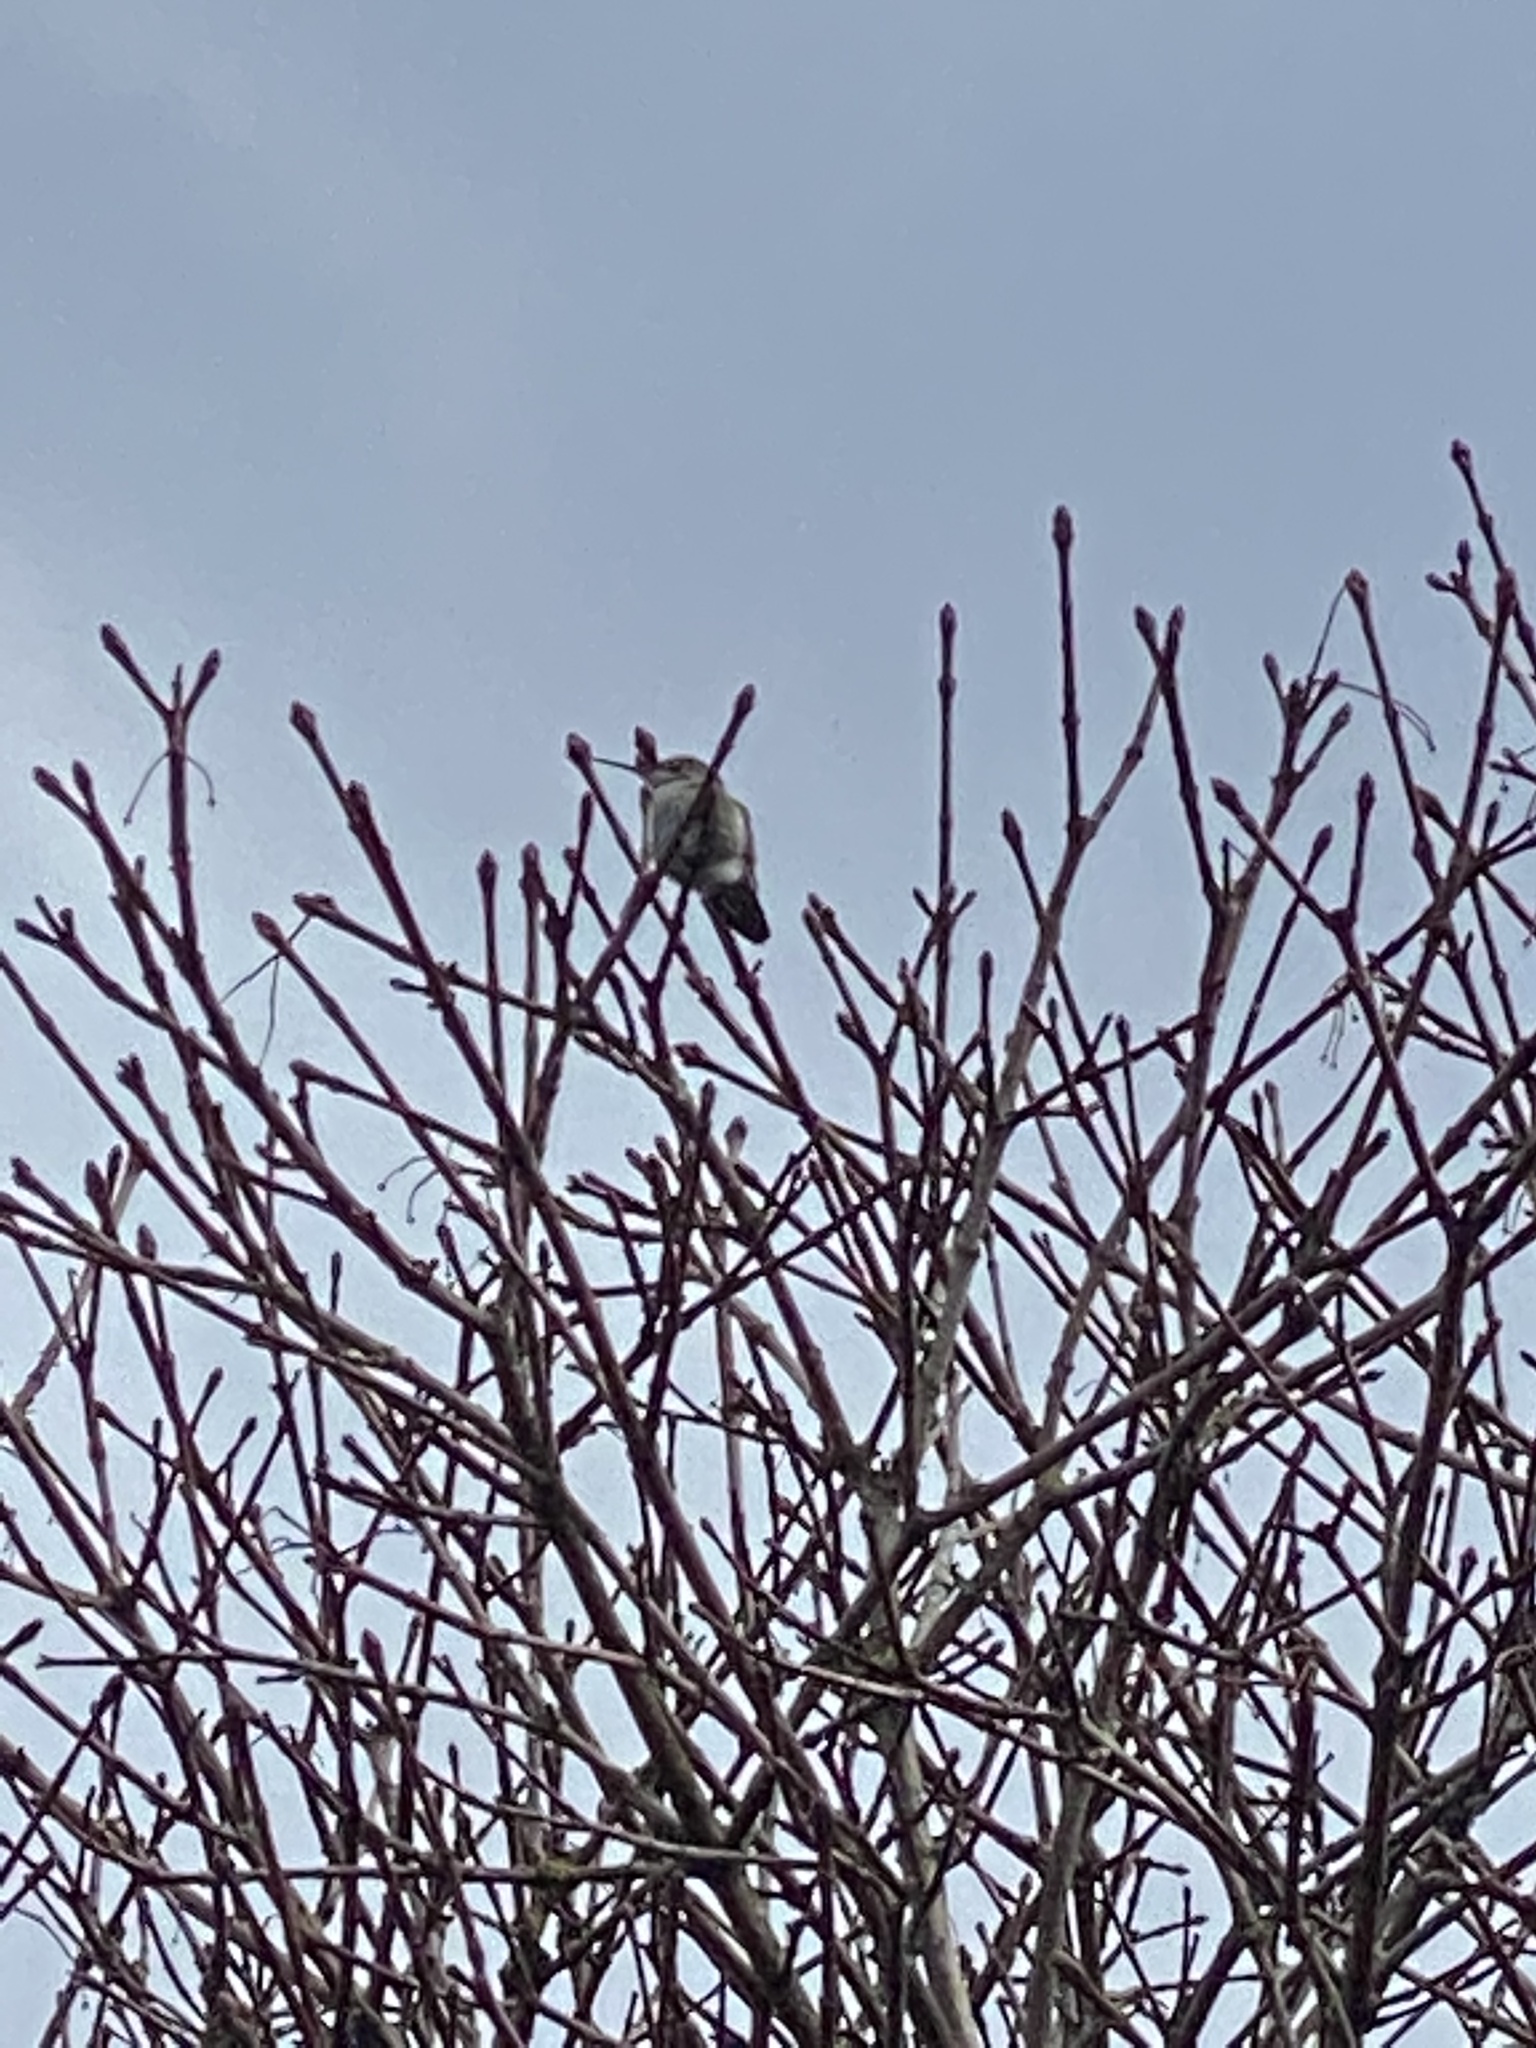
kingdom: Animalia
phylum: Chordata
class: Aves
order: Apodiformes
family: Trochilidae
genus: Calypte
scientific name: Calypte anna
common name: Anna's hummingbird
